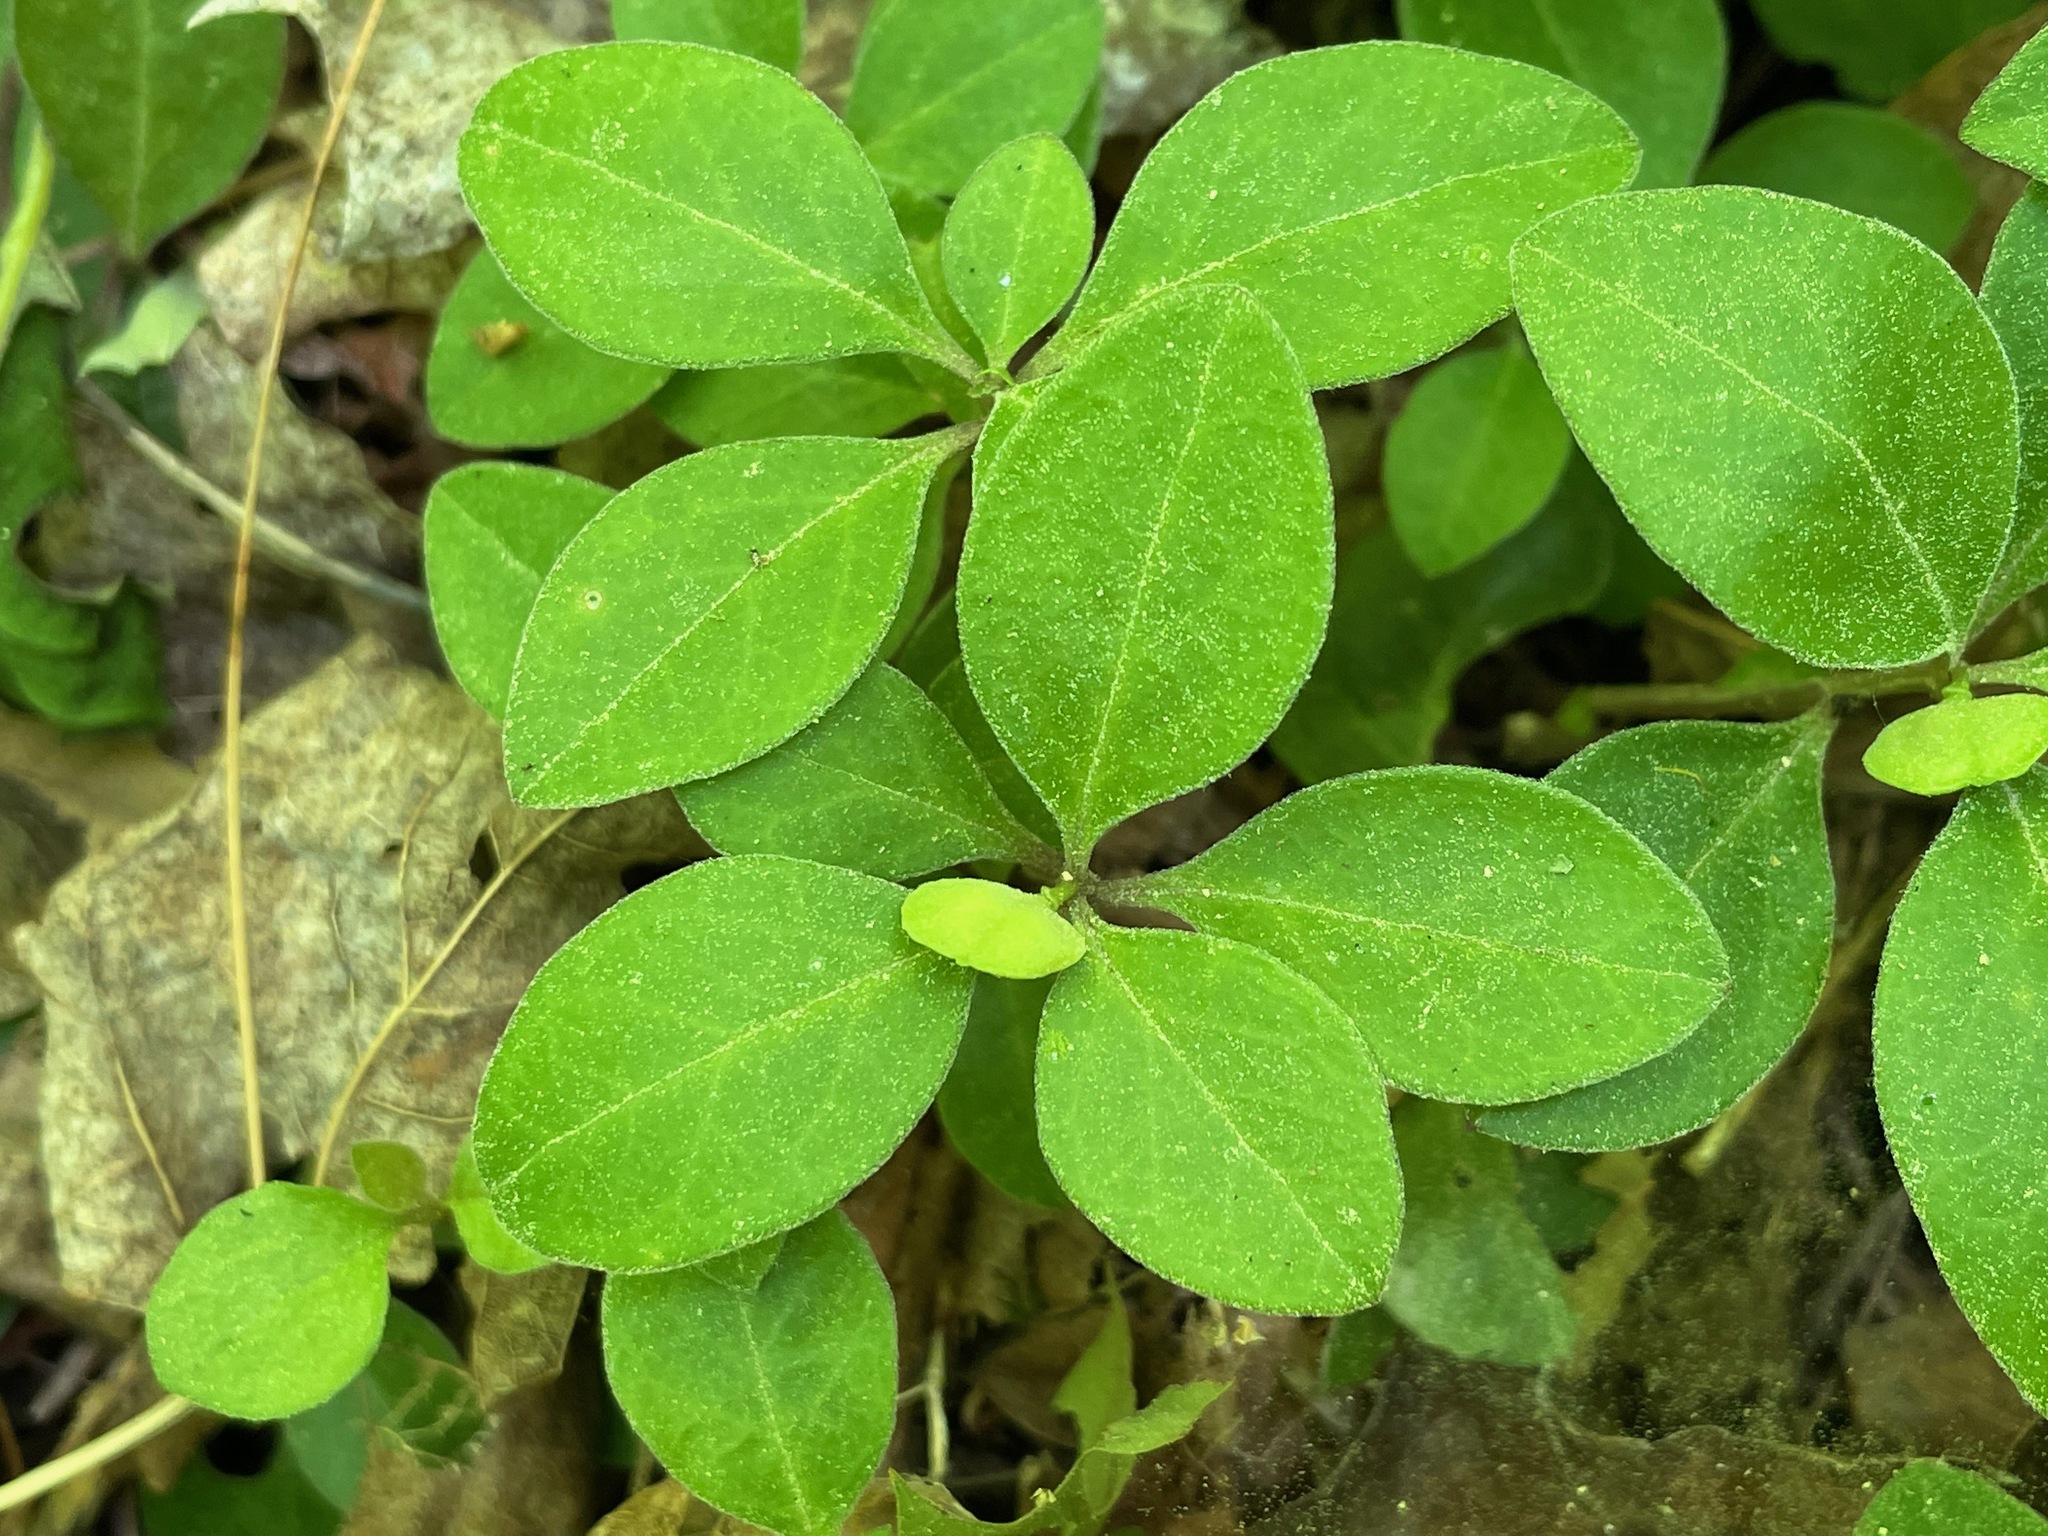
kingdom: Plantae
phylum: Tracheophyta
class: Magnoliopsida
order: Fabales
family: Polygalaceae
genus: Polygaloides
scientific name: Polygaloides paucifolia
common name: Bird-on-the-wing
